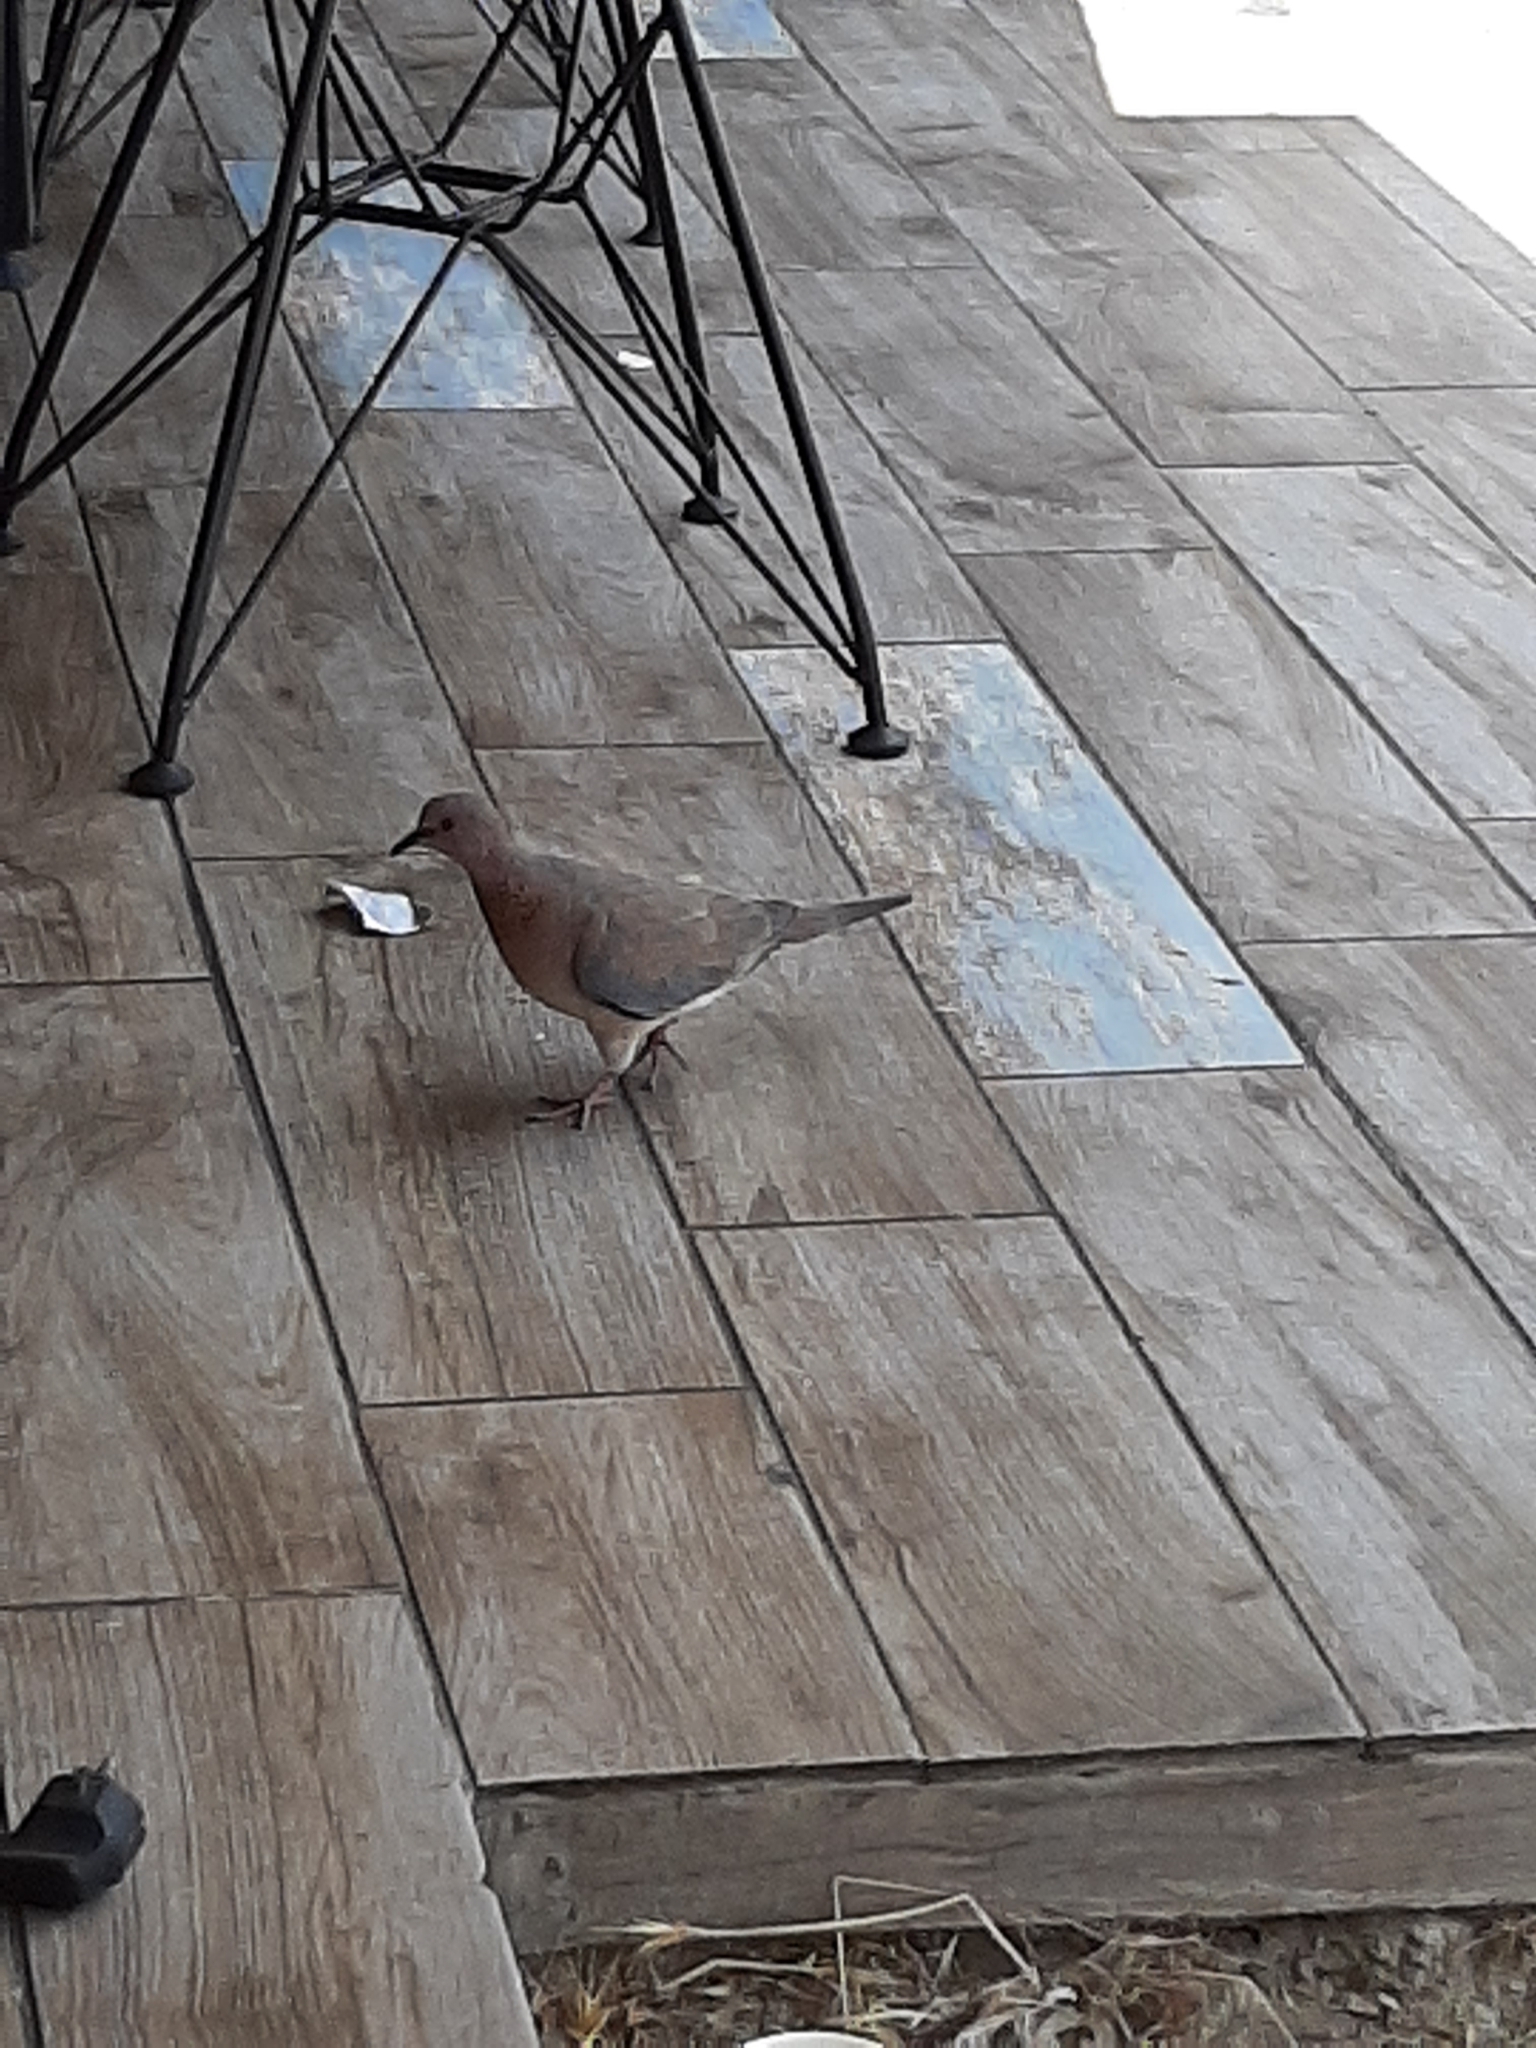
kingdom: Animalia
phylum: Chordata
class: Aves
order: Columbiformes
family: Columbidae
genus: Spilopelia
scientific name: Spilopelia senegalensis
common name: Laughing dove
